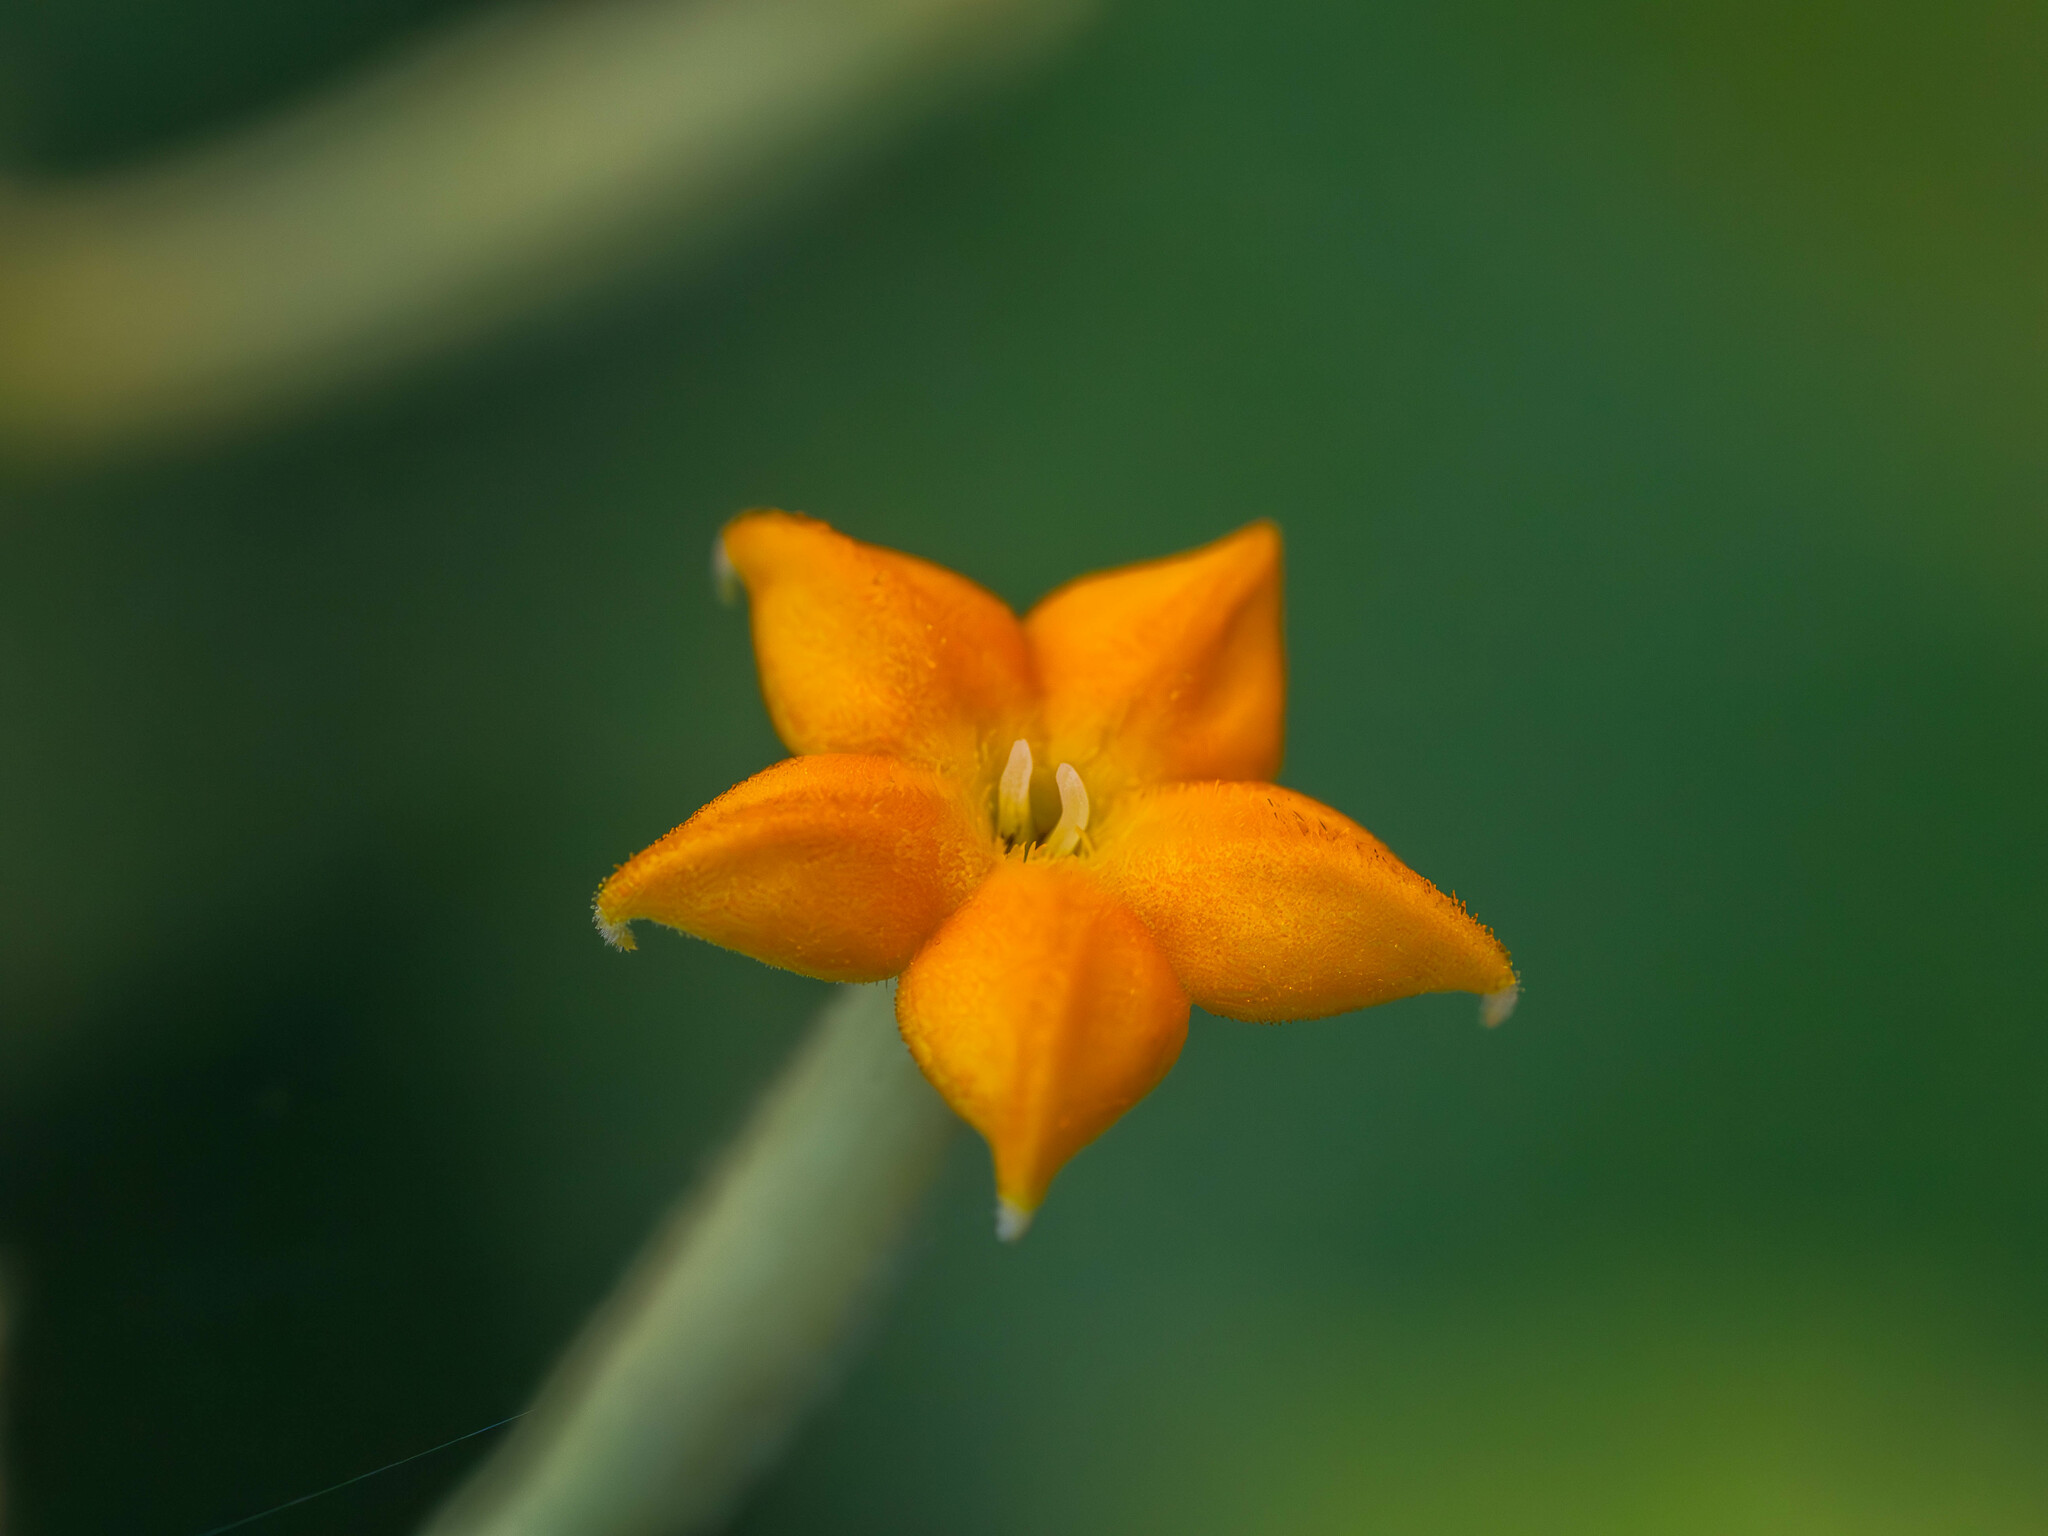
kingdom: Plantae
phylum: Tracheophyta
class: Magnoliopsida
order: Gentianales
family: Rubiaceae
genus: Mussaenda
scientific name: Mussaenda frondosa
